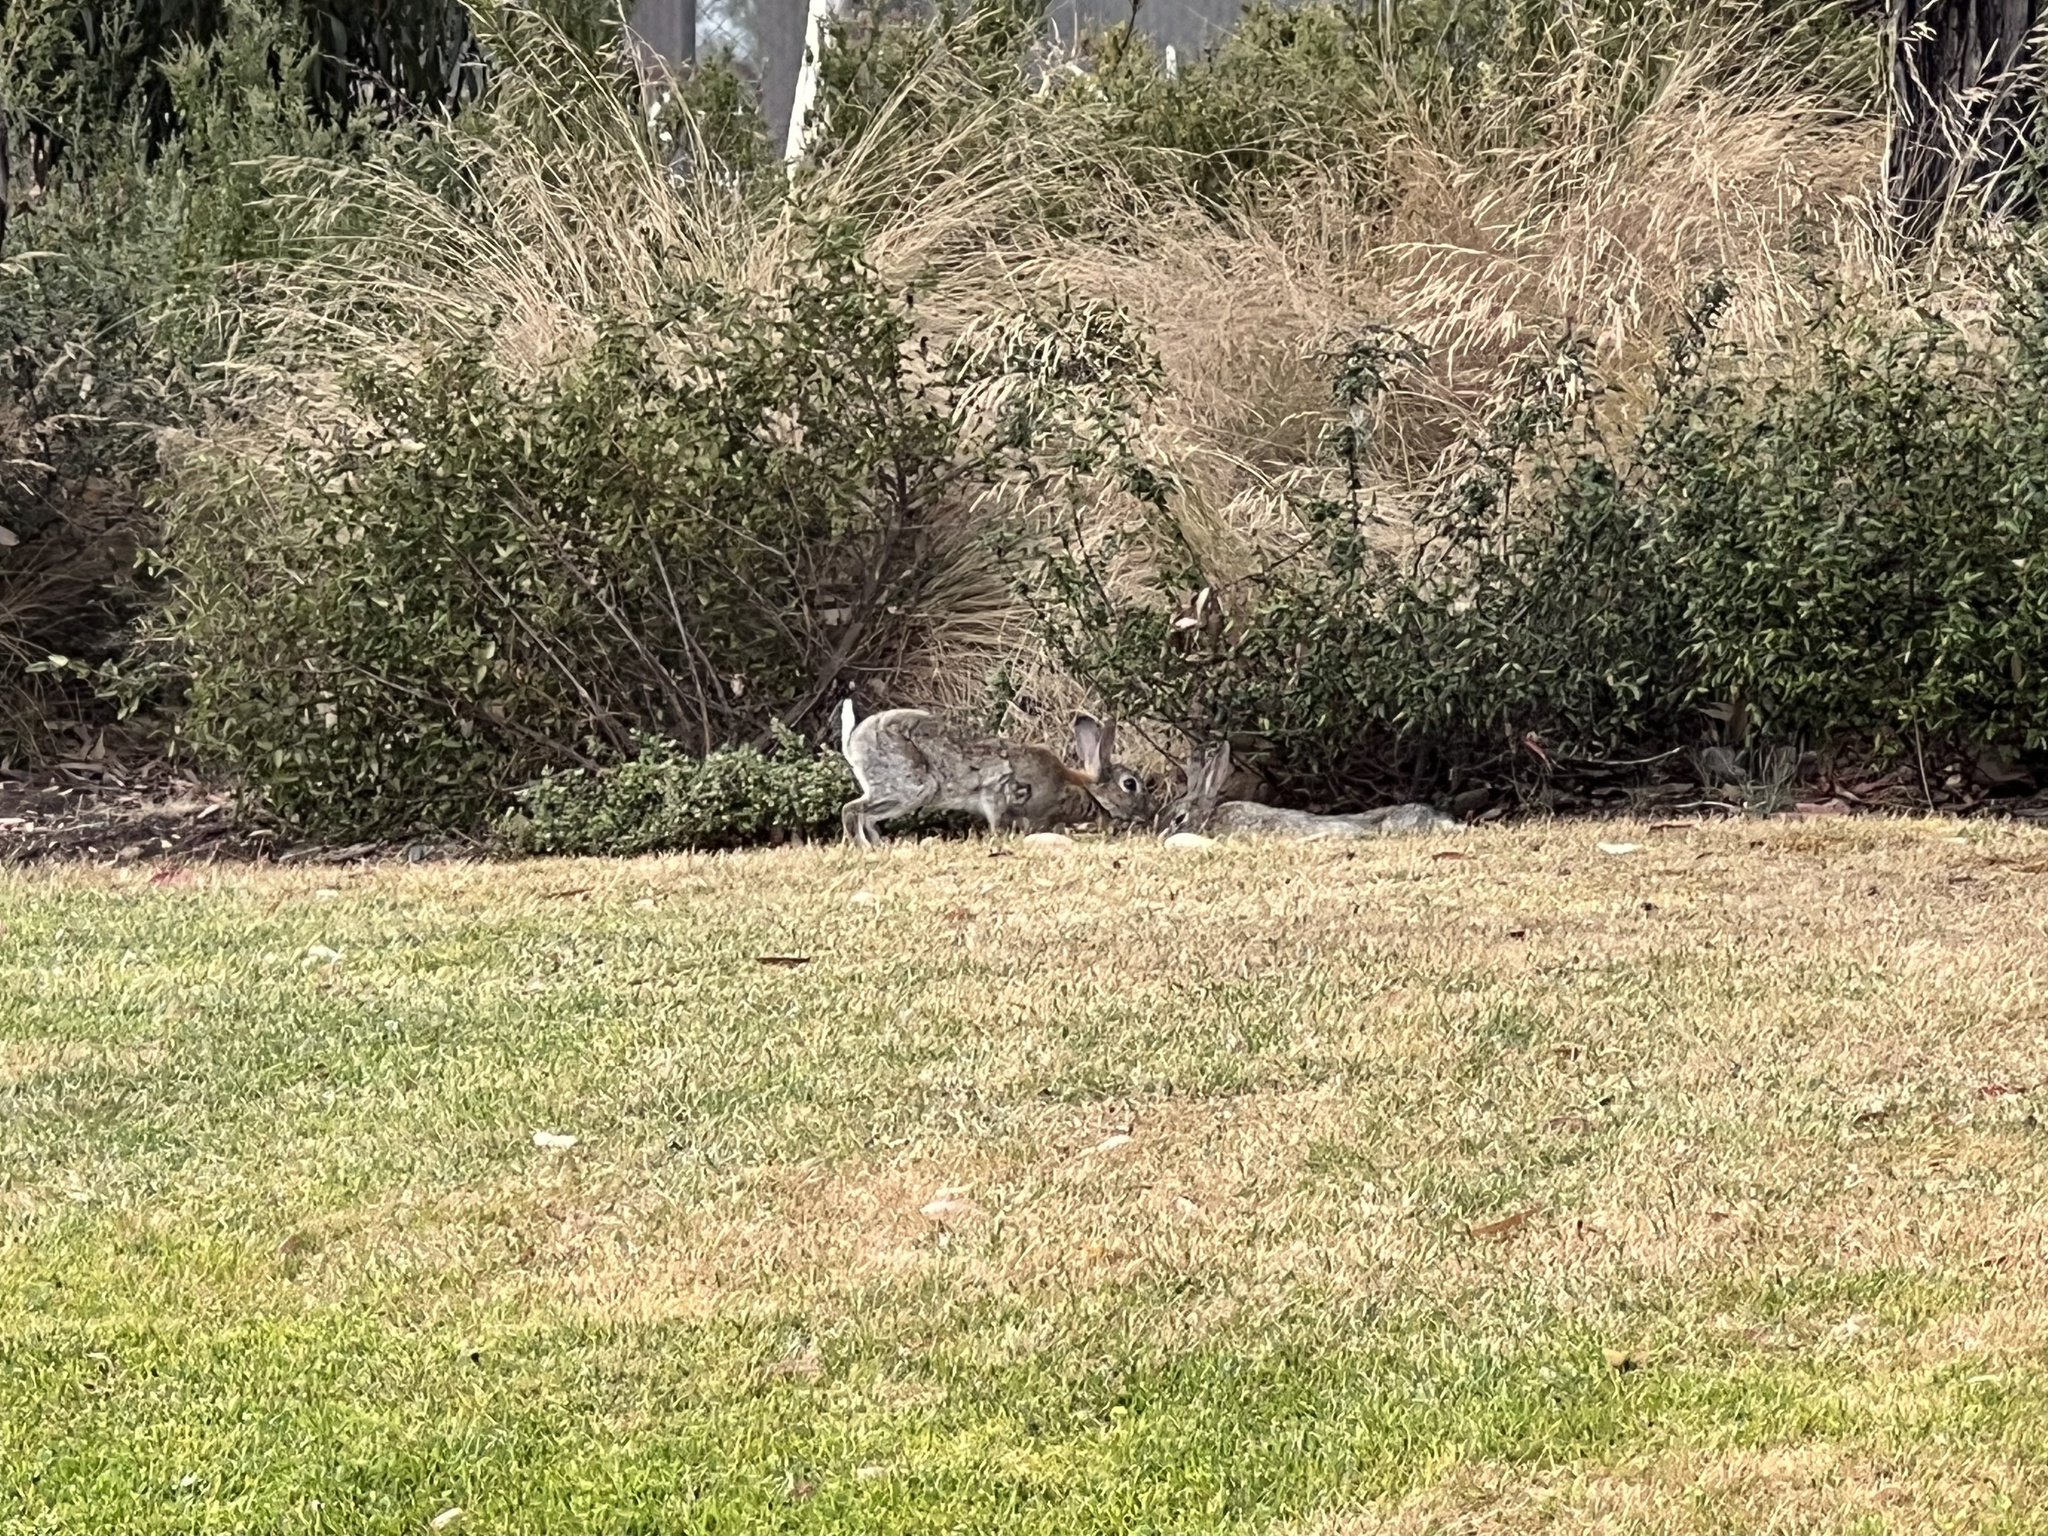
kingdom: Animalia
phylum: Chordata
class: Mammalia
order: Lagomorpha
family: Leporidae
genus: Oryctolagus
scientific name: Oryctolagus cuniculus
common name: European rabbit
